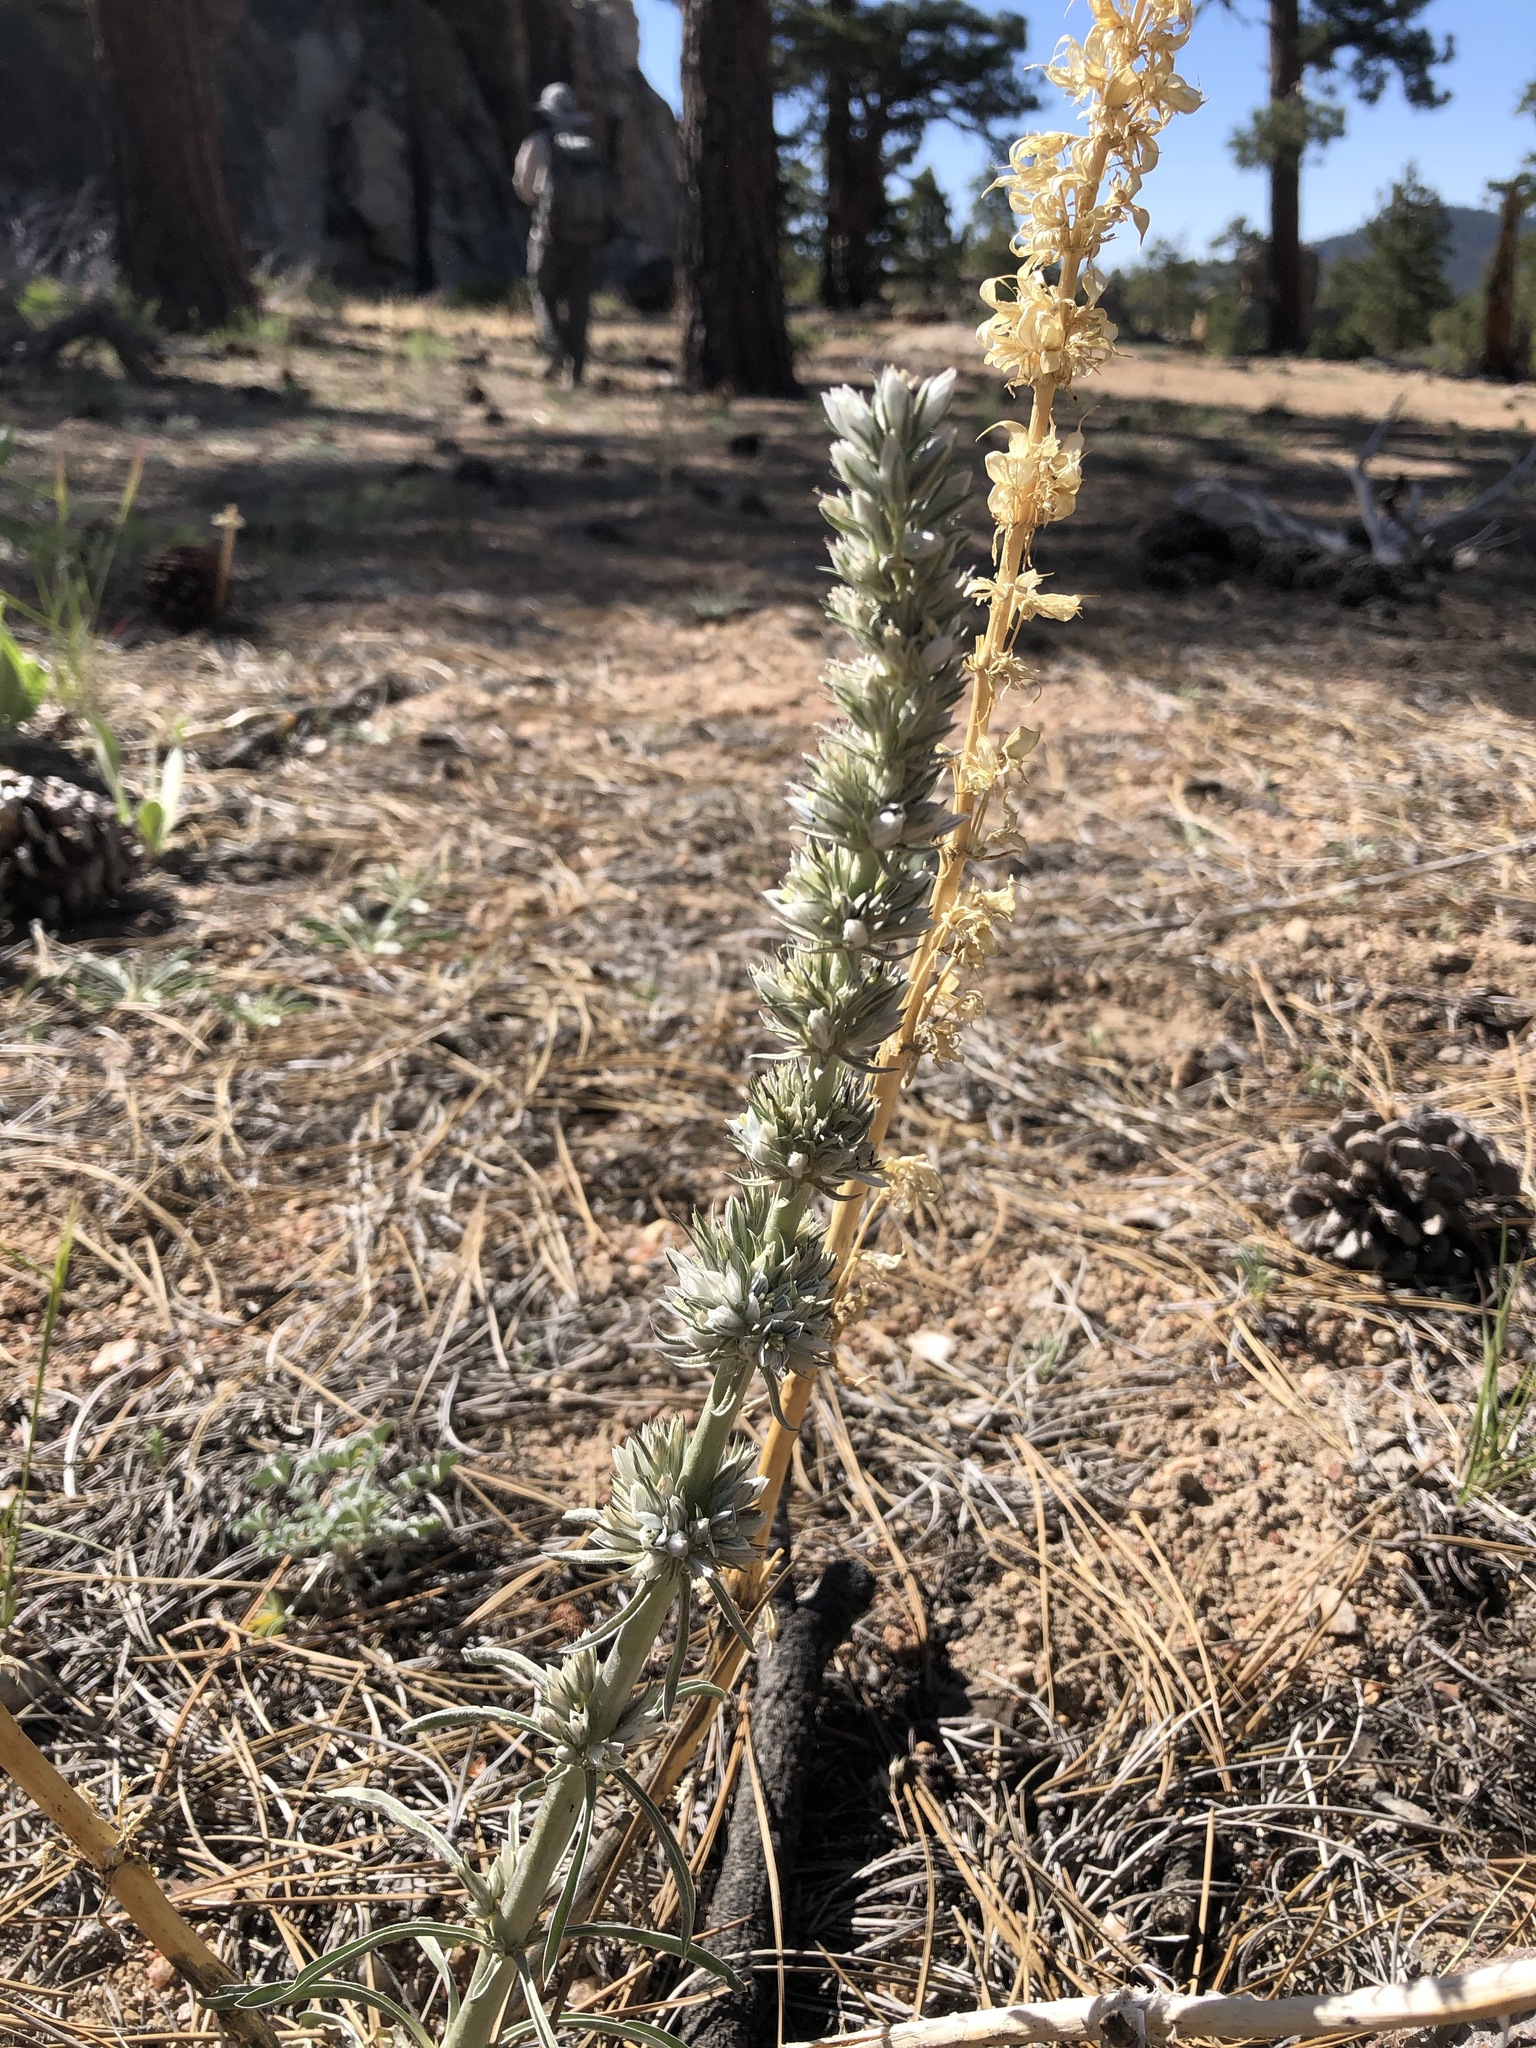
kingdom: Plantae
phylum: Tracheophyta
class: Magnoliopsida
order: Gentianales
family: Gentianaceae
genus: Frasera
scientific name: Frasera tubulosa
